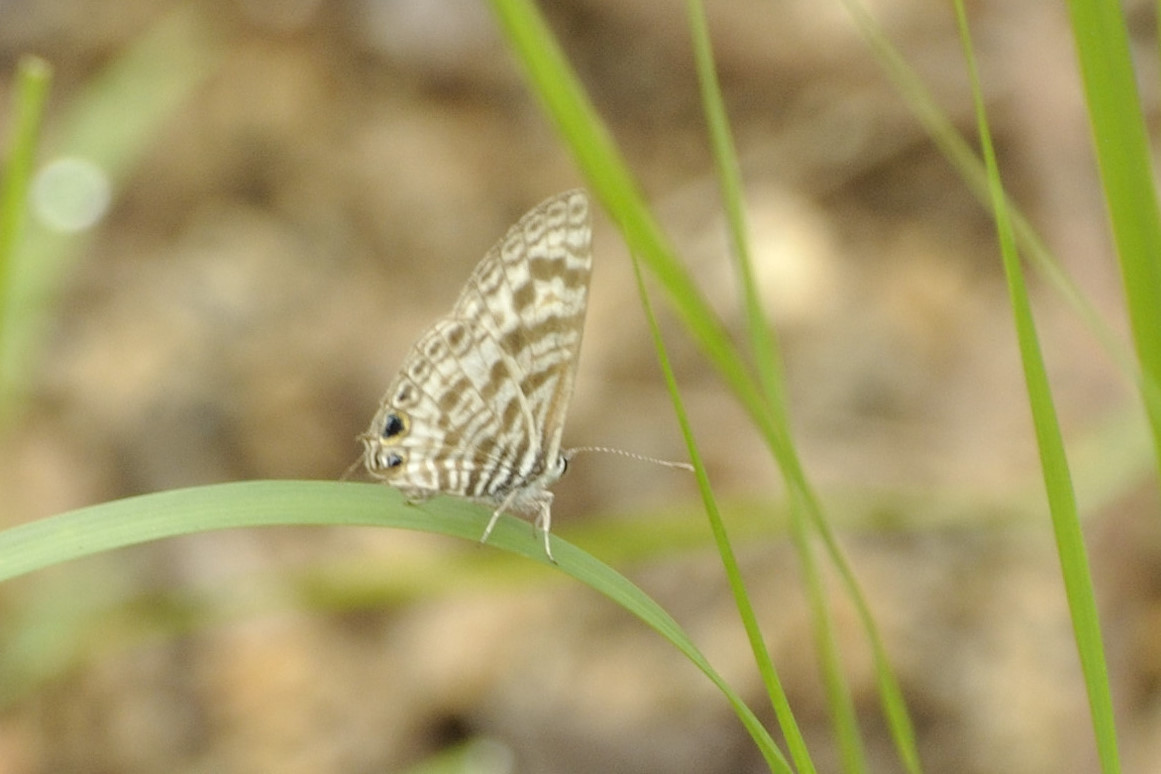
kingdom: Animalia
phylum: Arthropoda
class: Insecta
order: Lepidoptera
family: Lycaenidae
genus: Leptotes
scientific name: Leptotes
